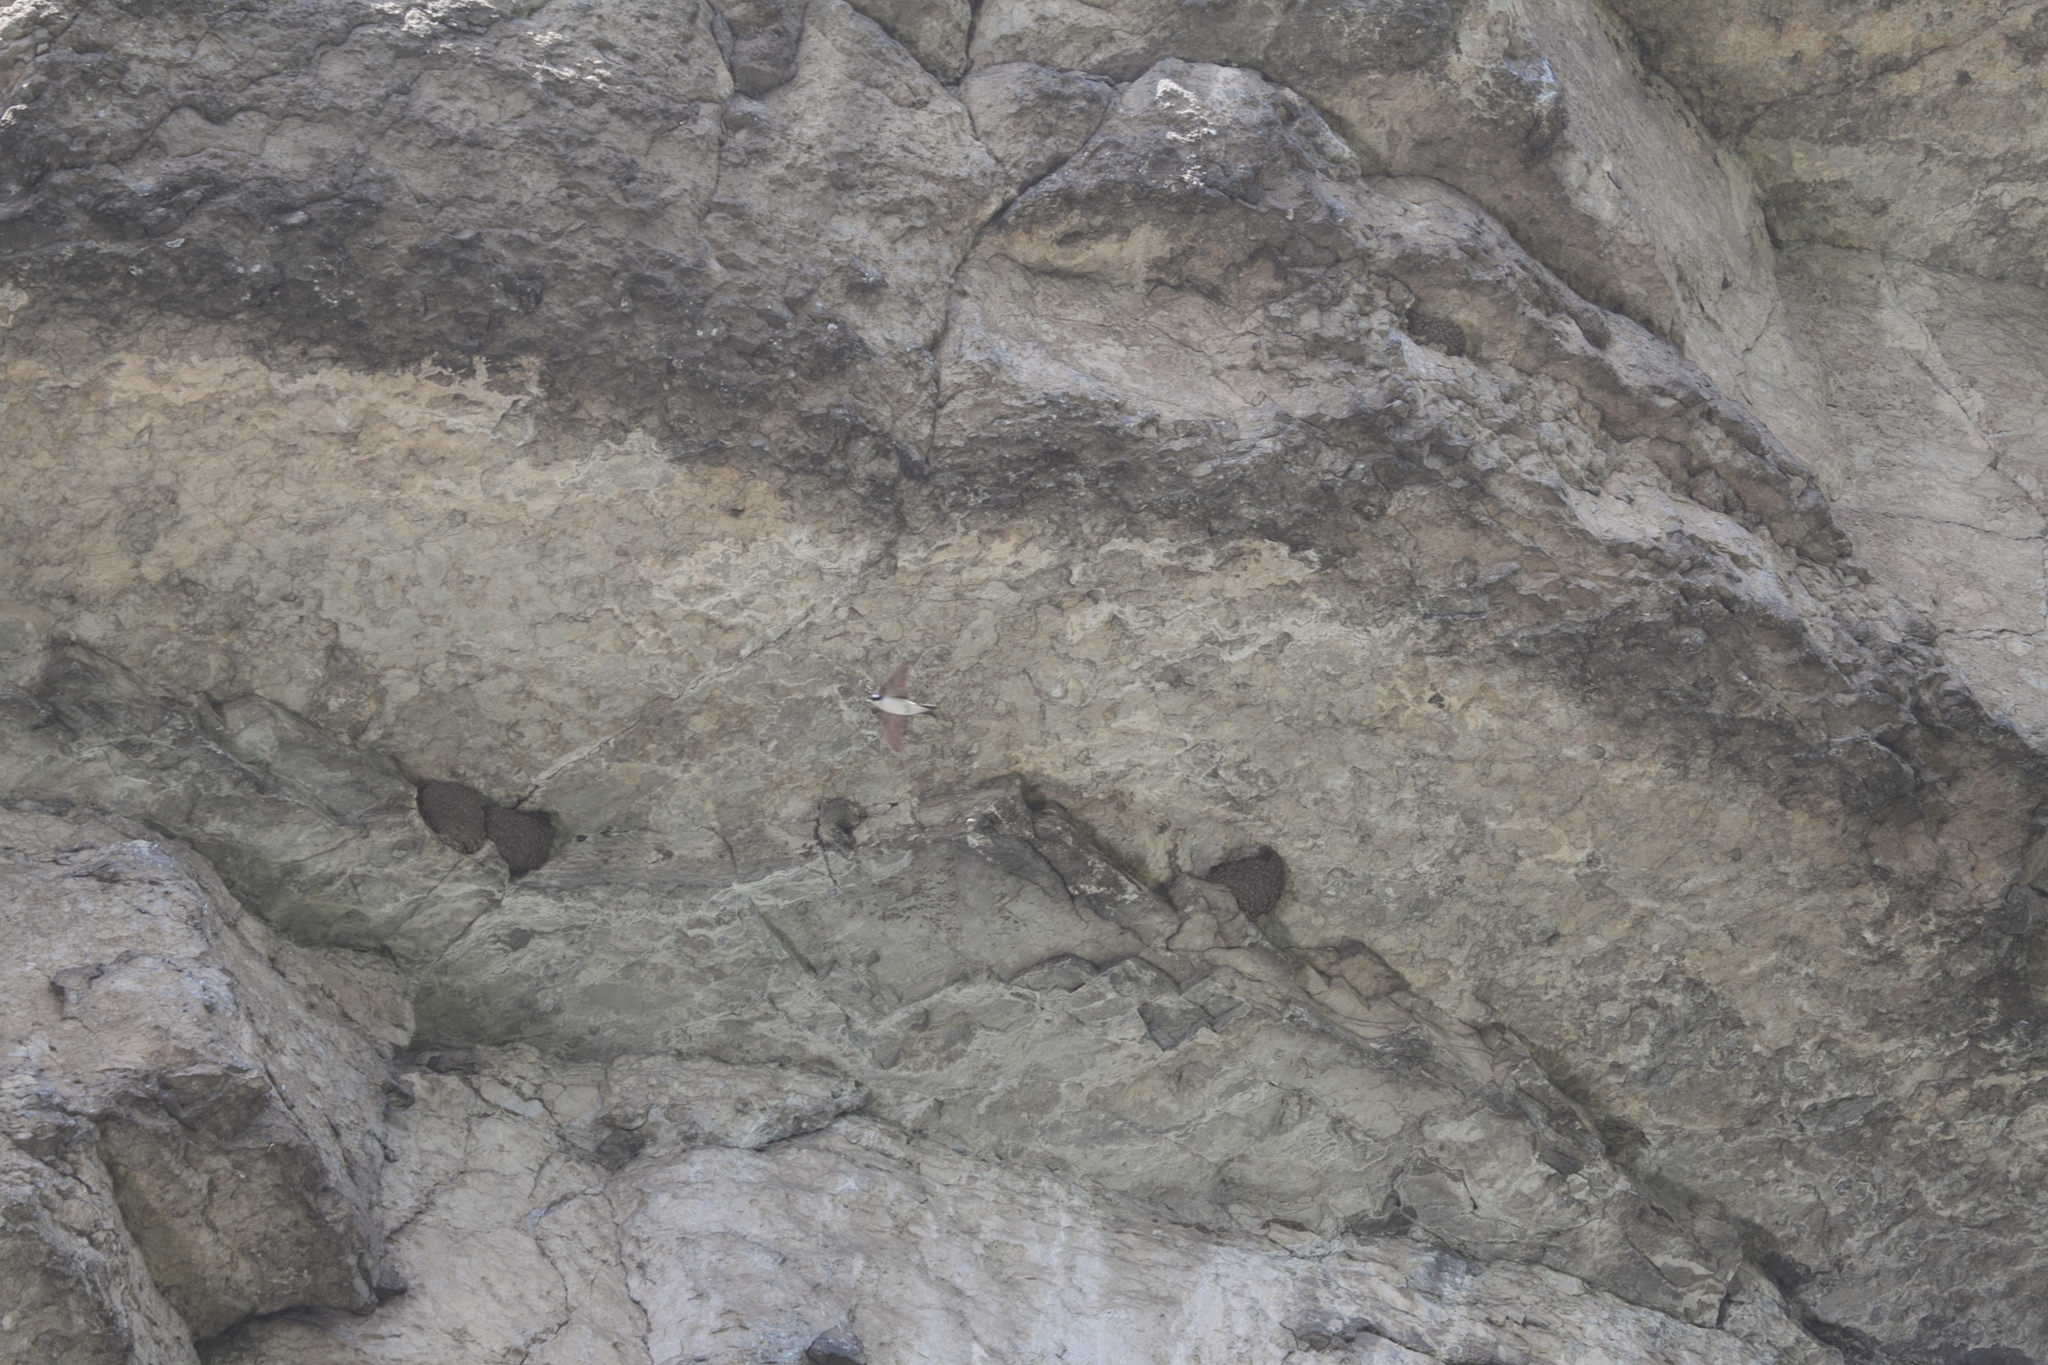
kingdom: Animalia
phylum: Chordata
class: Aves
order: Passeriformes
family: Hirundinidae
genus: Delichon
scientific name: Delichon urbicum
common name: Common house martin
